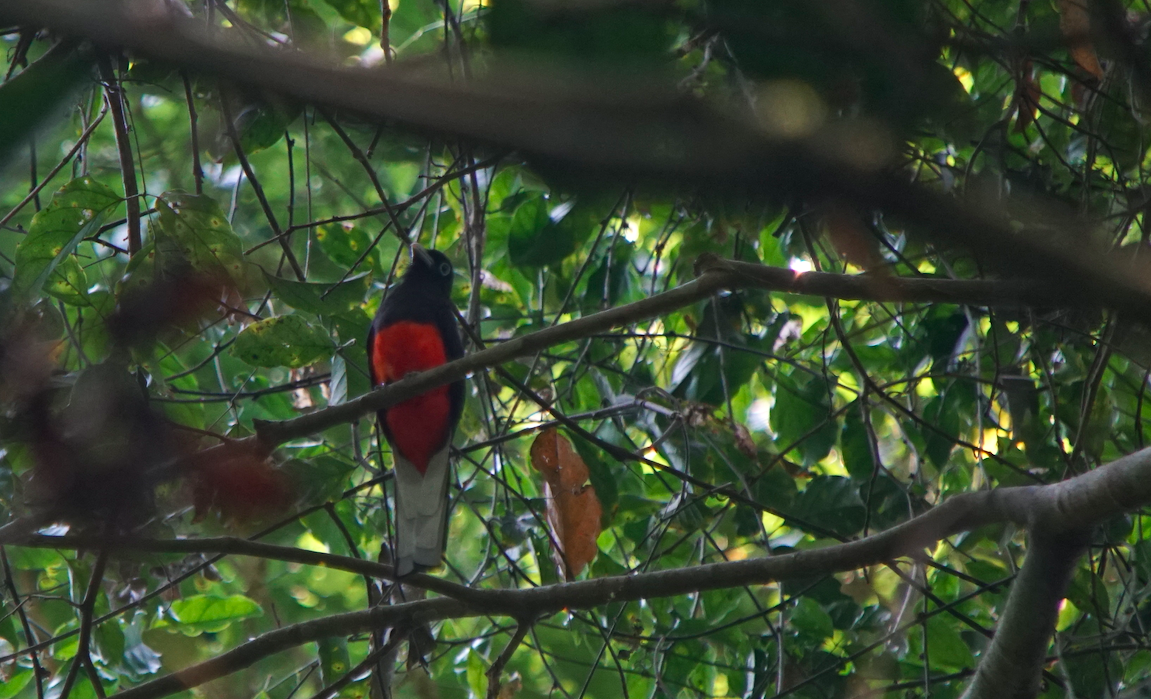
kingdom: Animalia
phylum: Chordata
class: Aves
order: Trogoniformes
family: Trogonidae
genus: Trogon
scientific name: Trogon bairdii
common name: Baird's trogon
